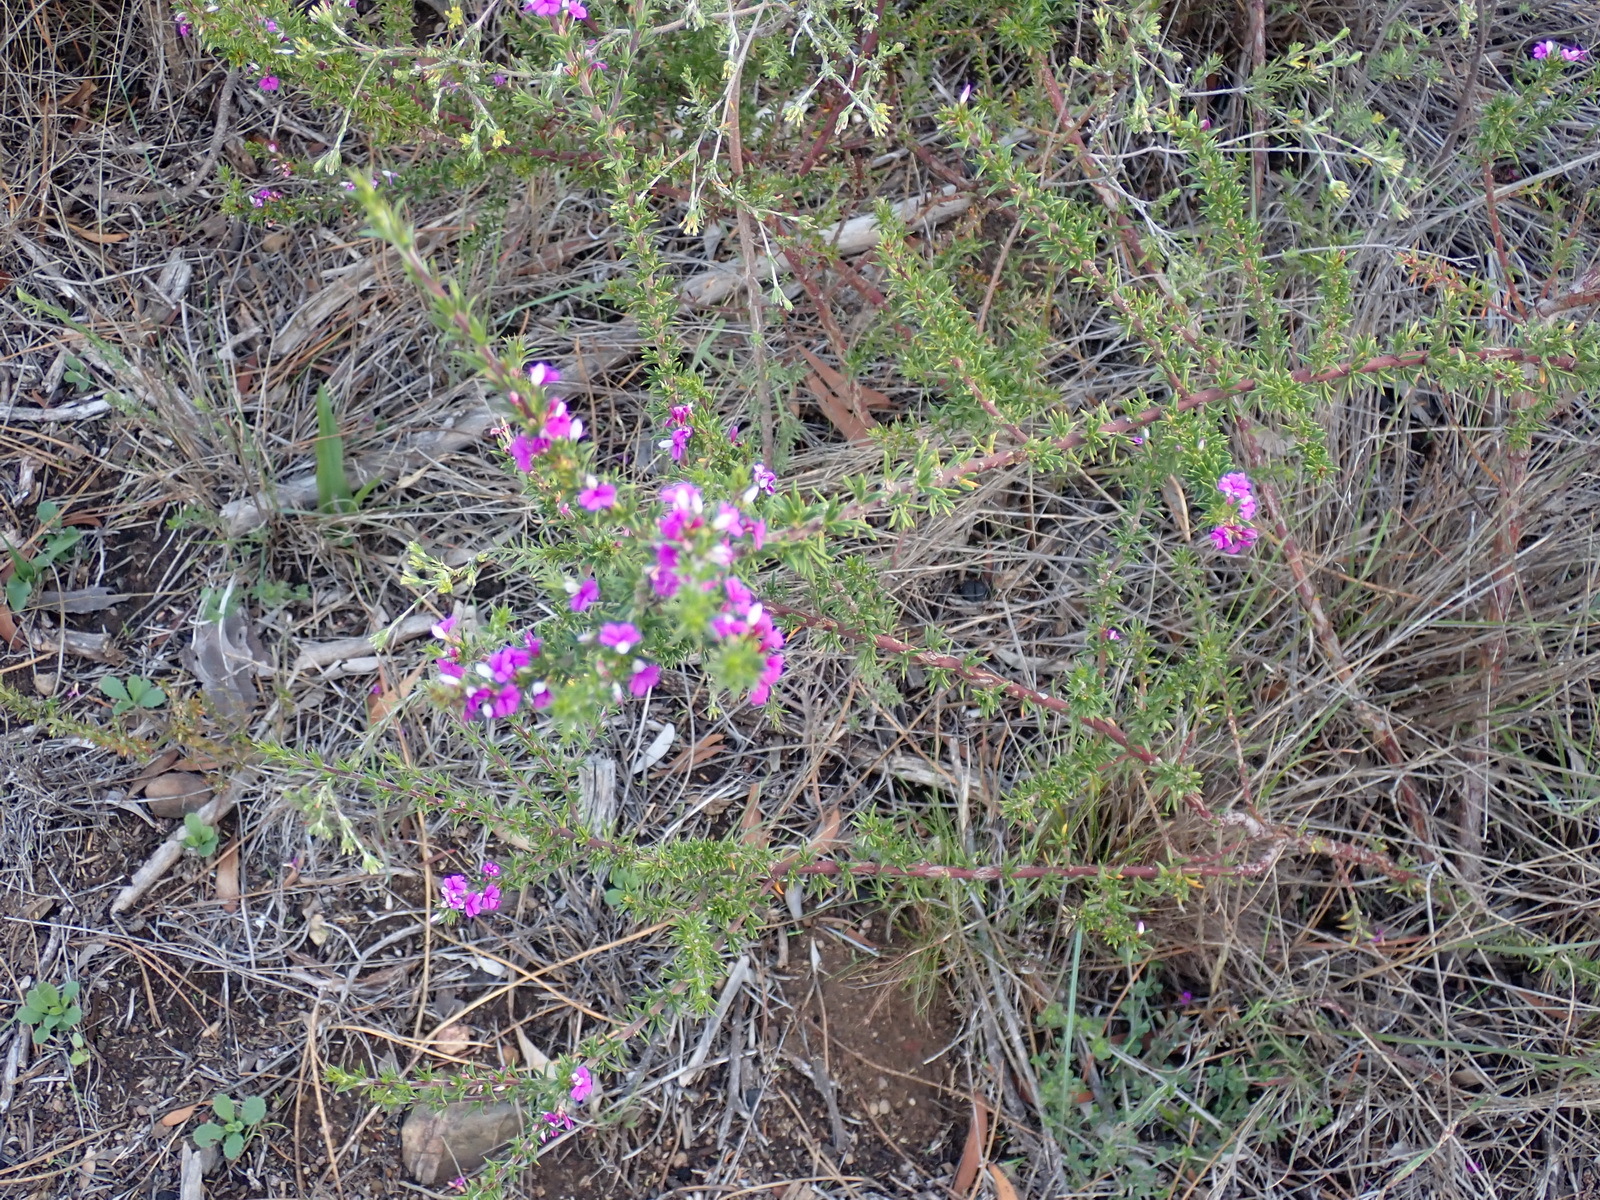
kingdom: Plantae
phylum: Tracheophyta
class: Magnoliopsida
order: Fabales
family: Polygalaceae
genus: Muraltia
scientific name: Muraltia heisteria
